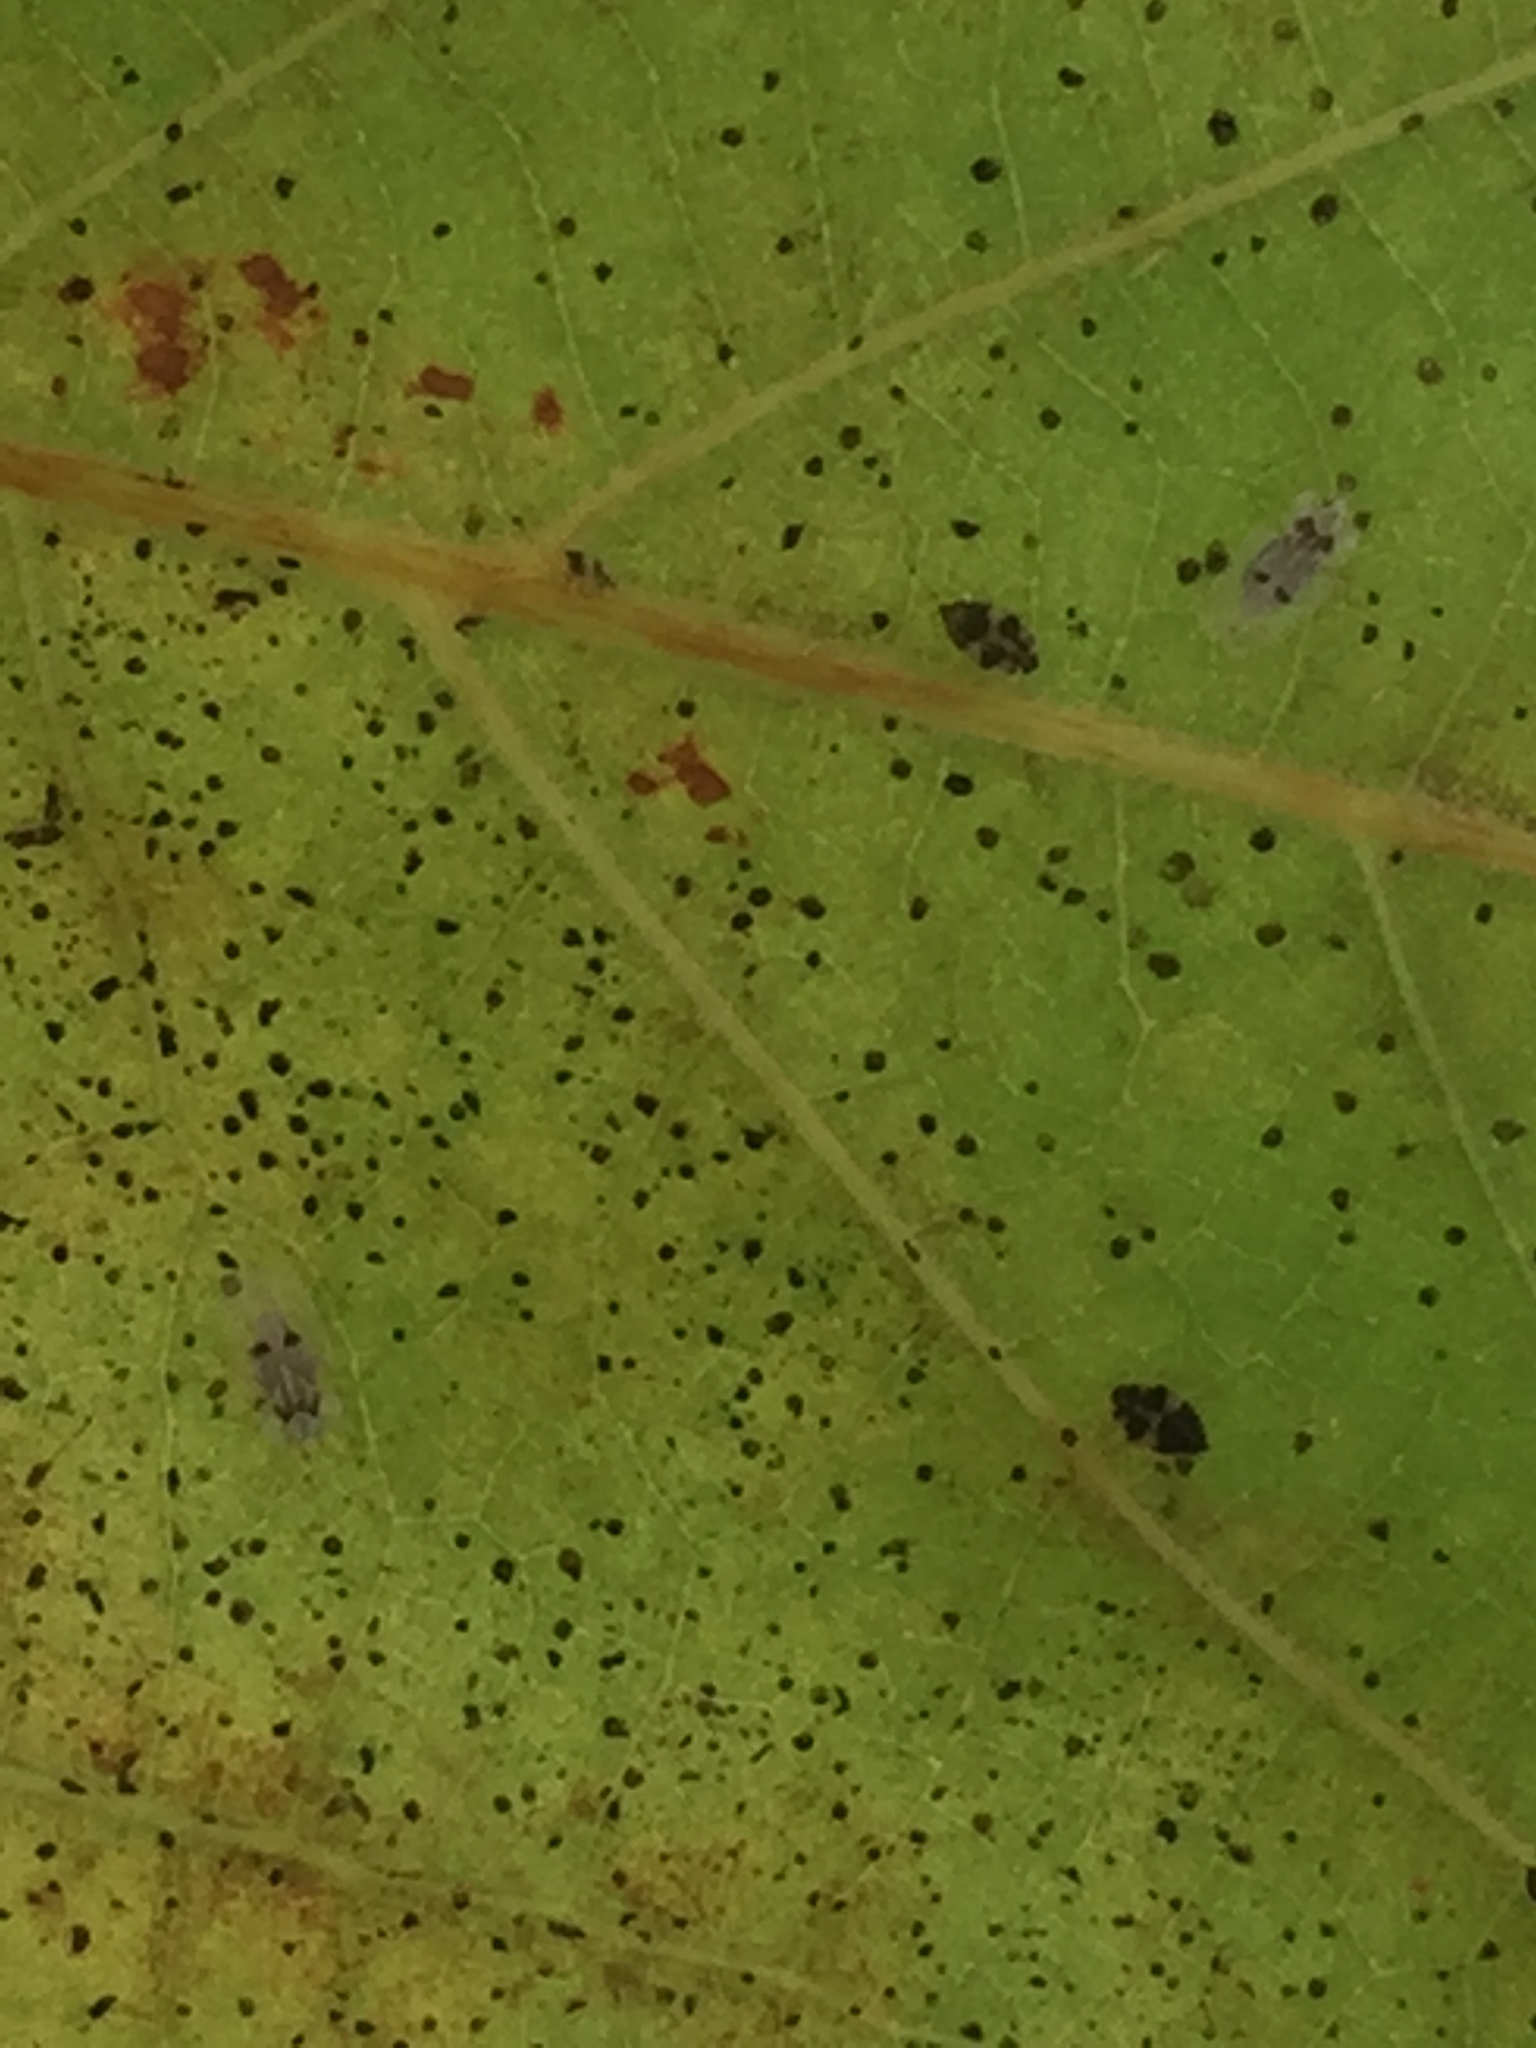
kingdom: Animalia
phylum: Arthropoda
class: Insecta
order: Hemiptera
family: Tingidae
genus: Corythucha
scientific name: Corythucha ciliata
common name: Sycamore lace bug
